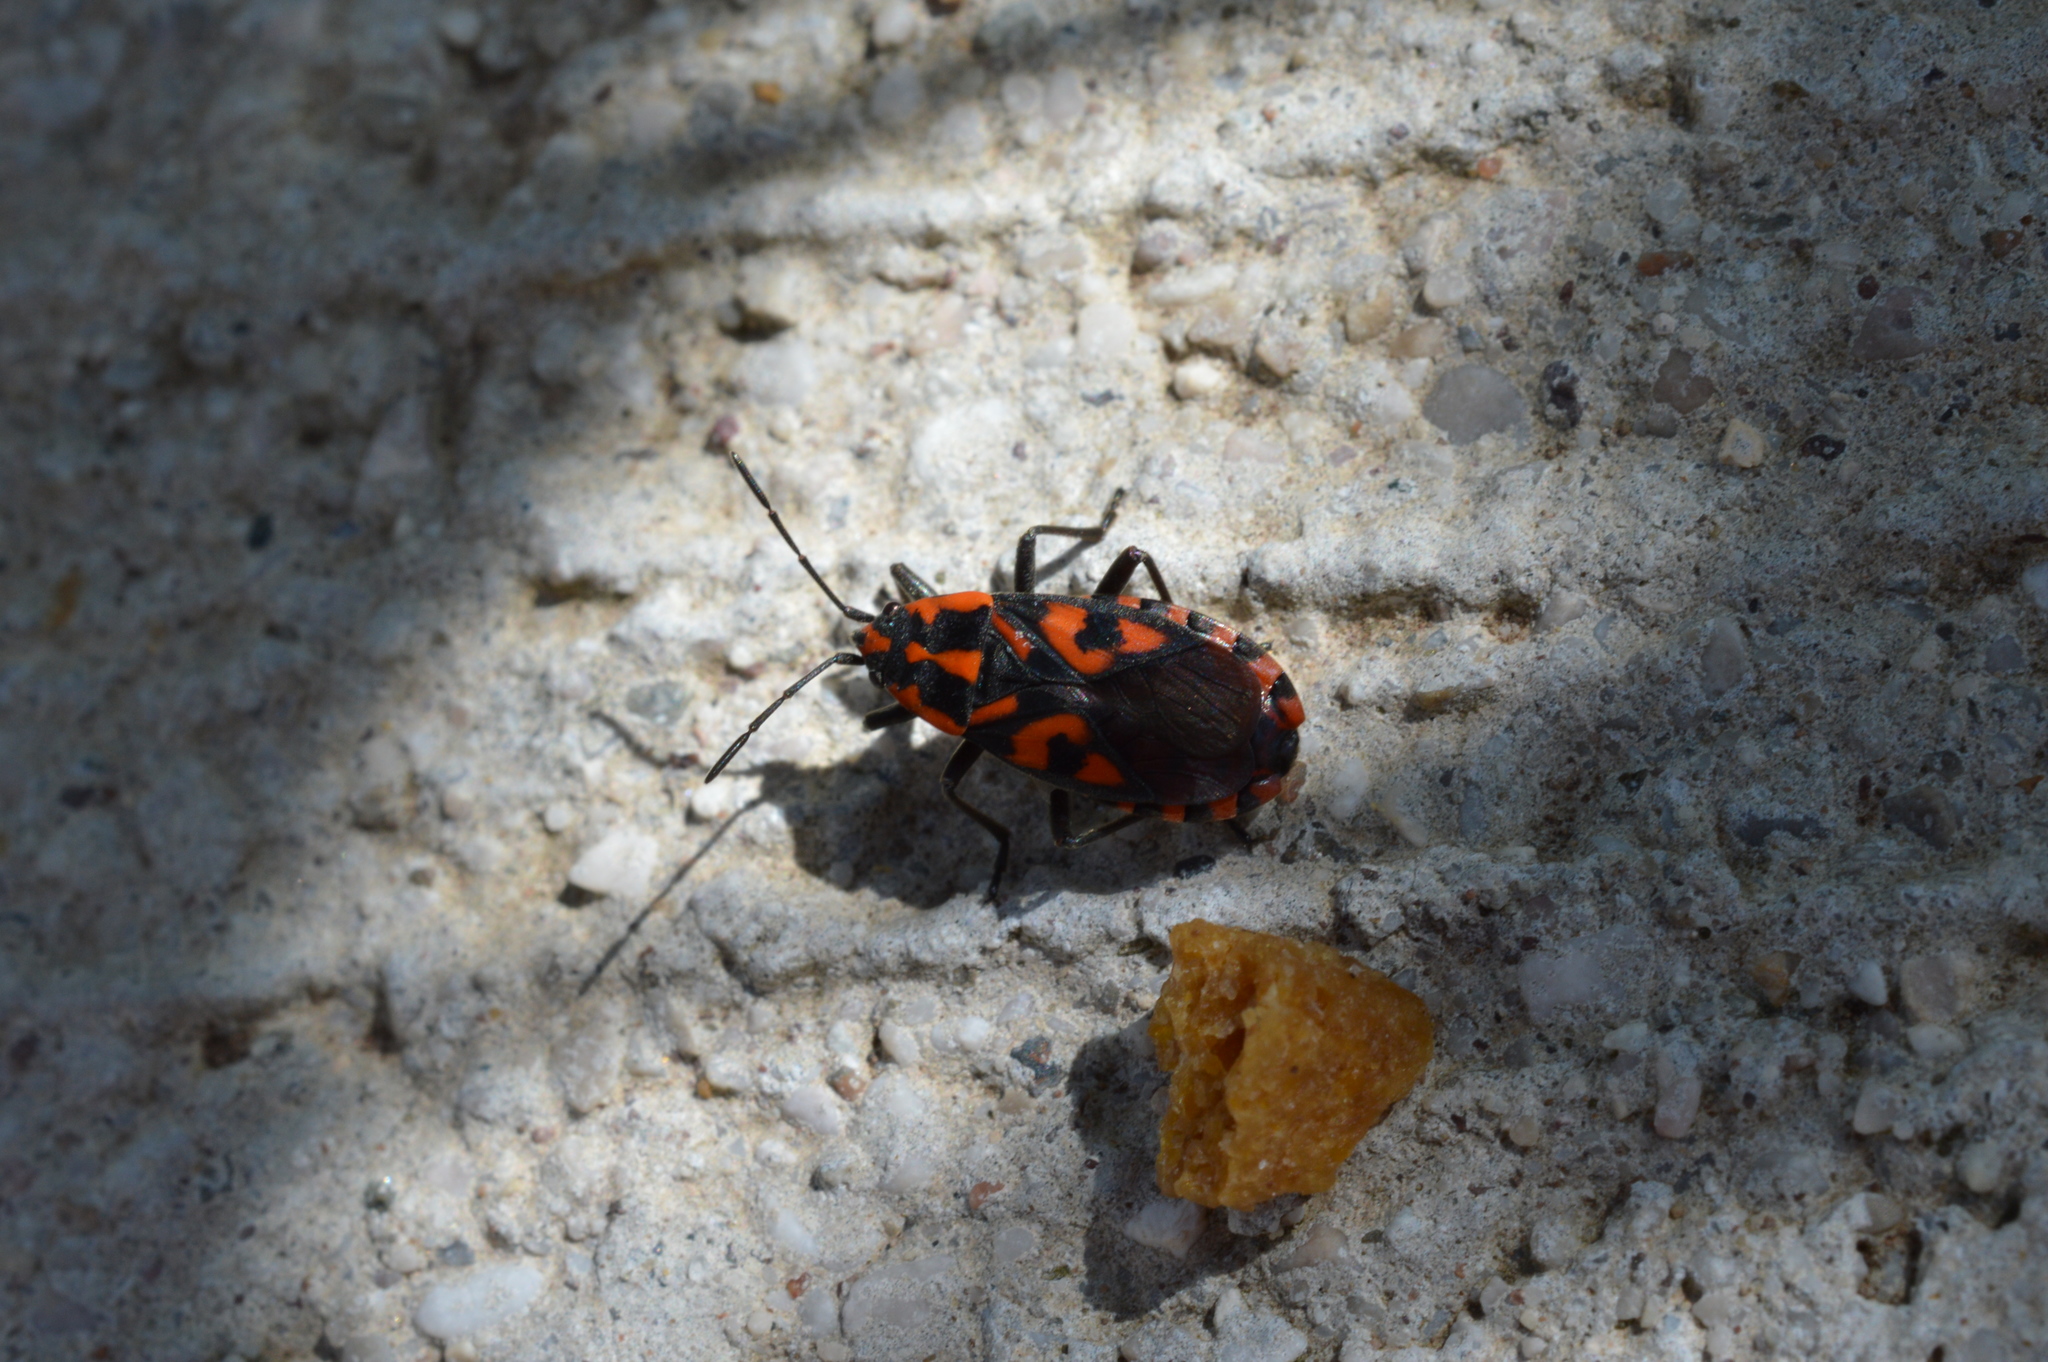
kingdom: Animalia
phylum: Arthropoda
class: Insecta
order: Hemiptera
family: Lygaeidae
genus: Spilostethus
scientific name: Spilostethus saxatilis
